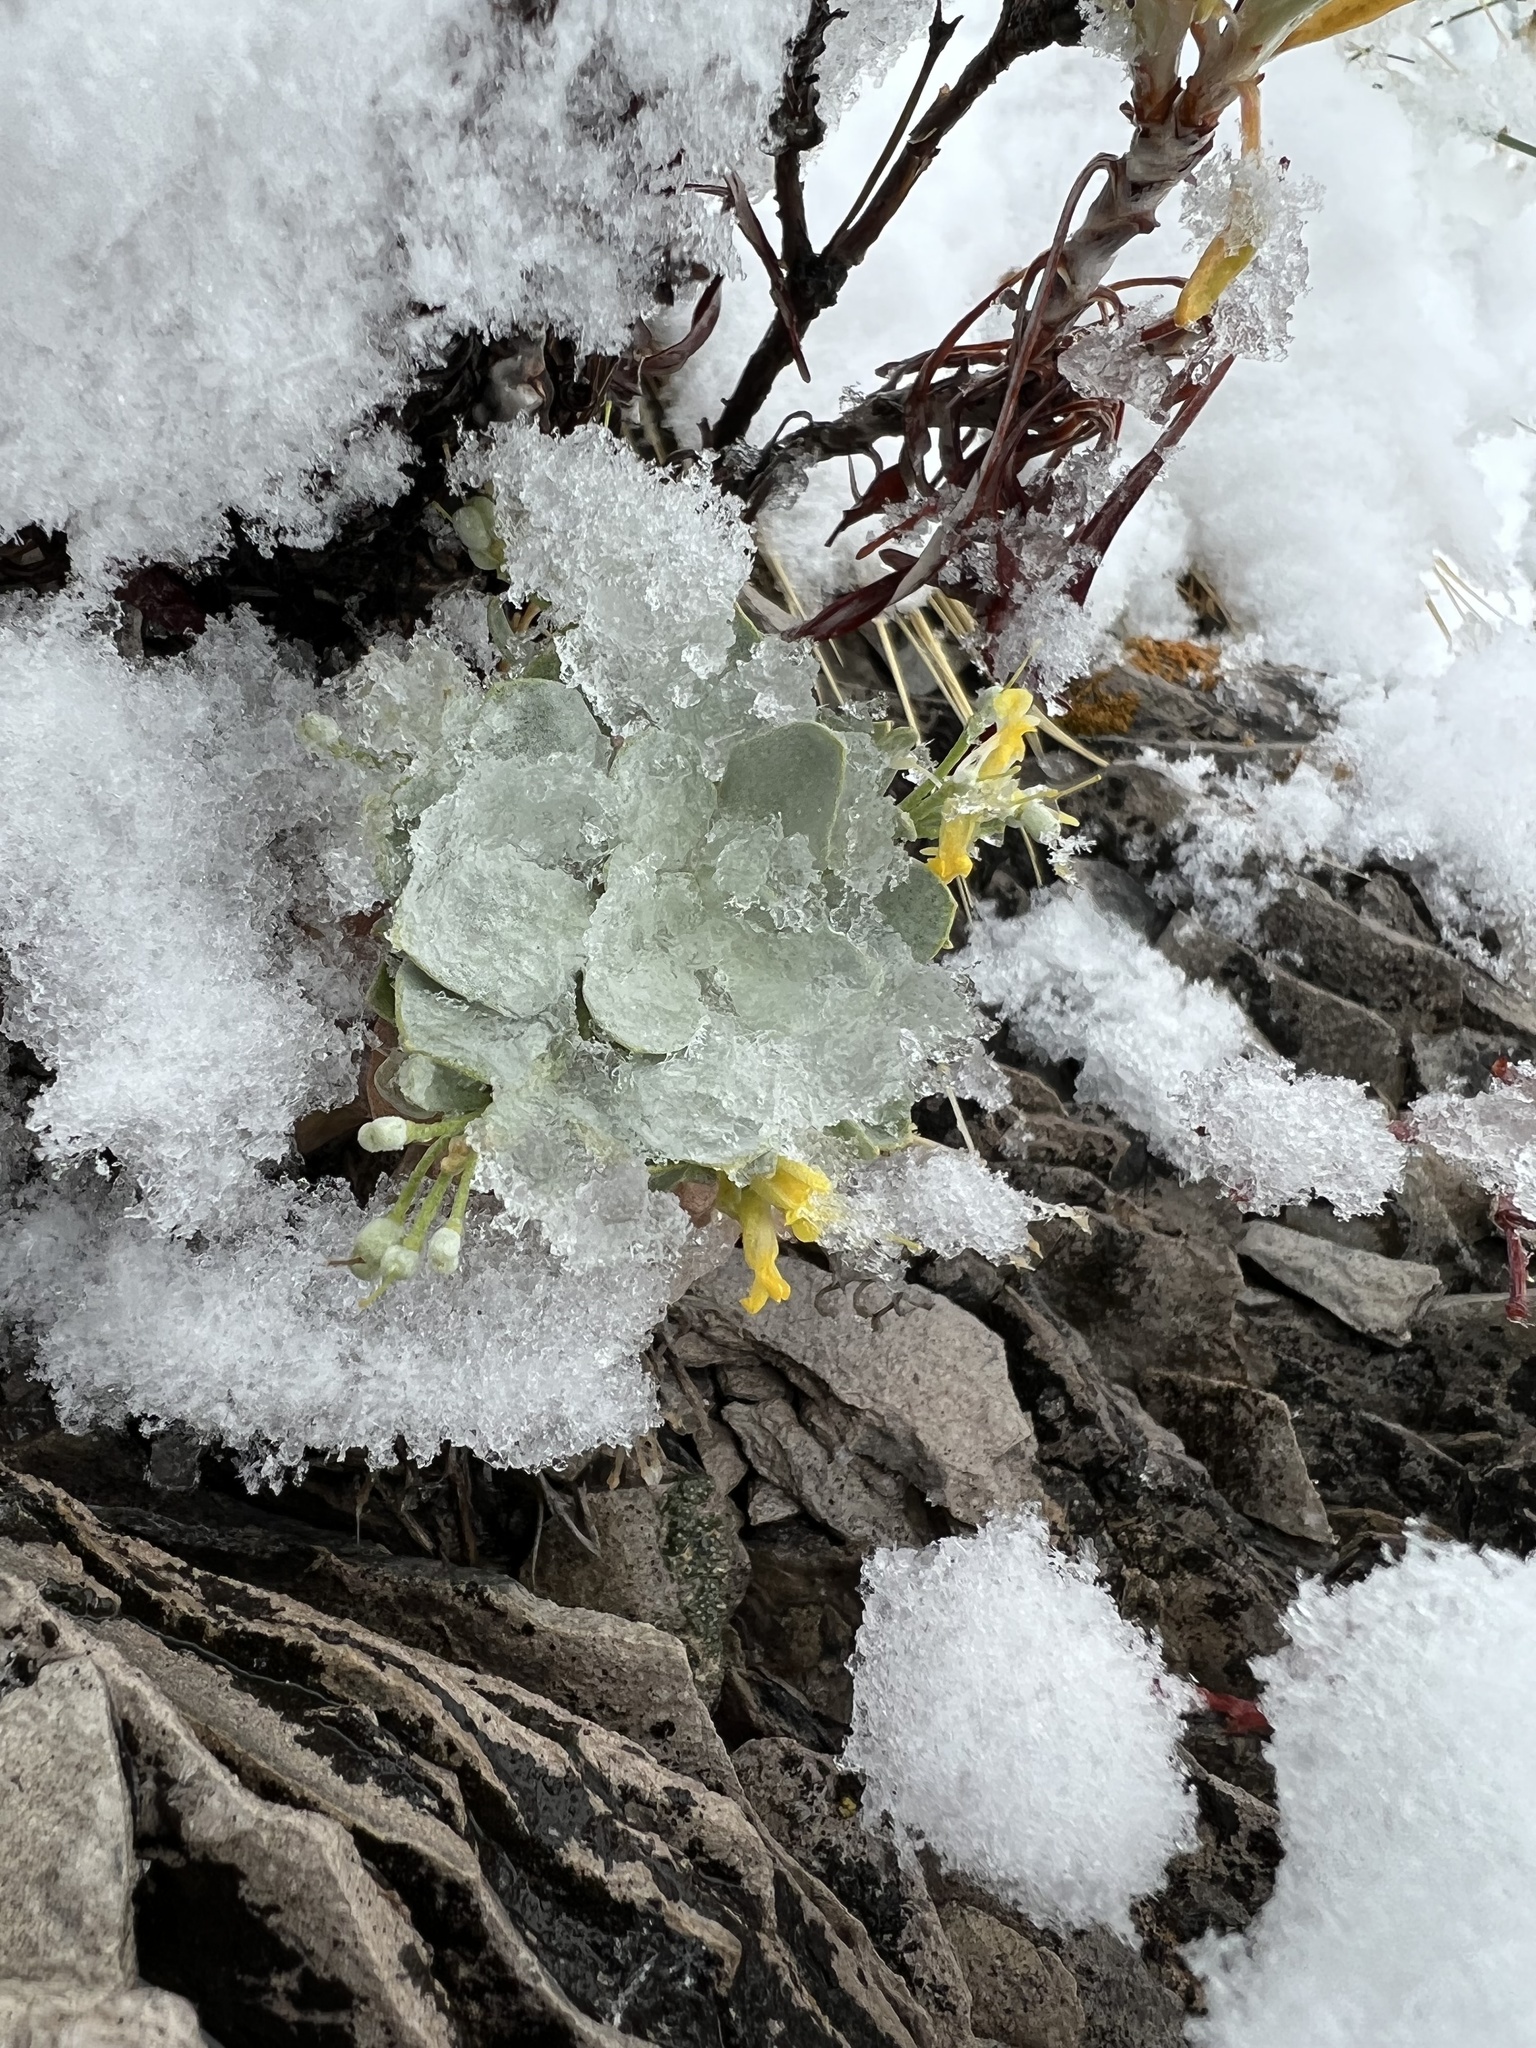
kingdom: Plantae
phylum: Tracheophyta
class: Magnoliopsida
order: Brassicales
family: Brassicaceae
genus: Physaria
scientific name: Physaria bellii
